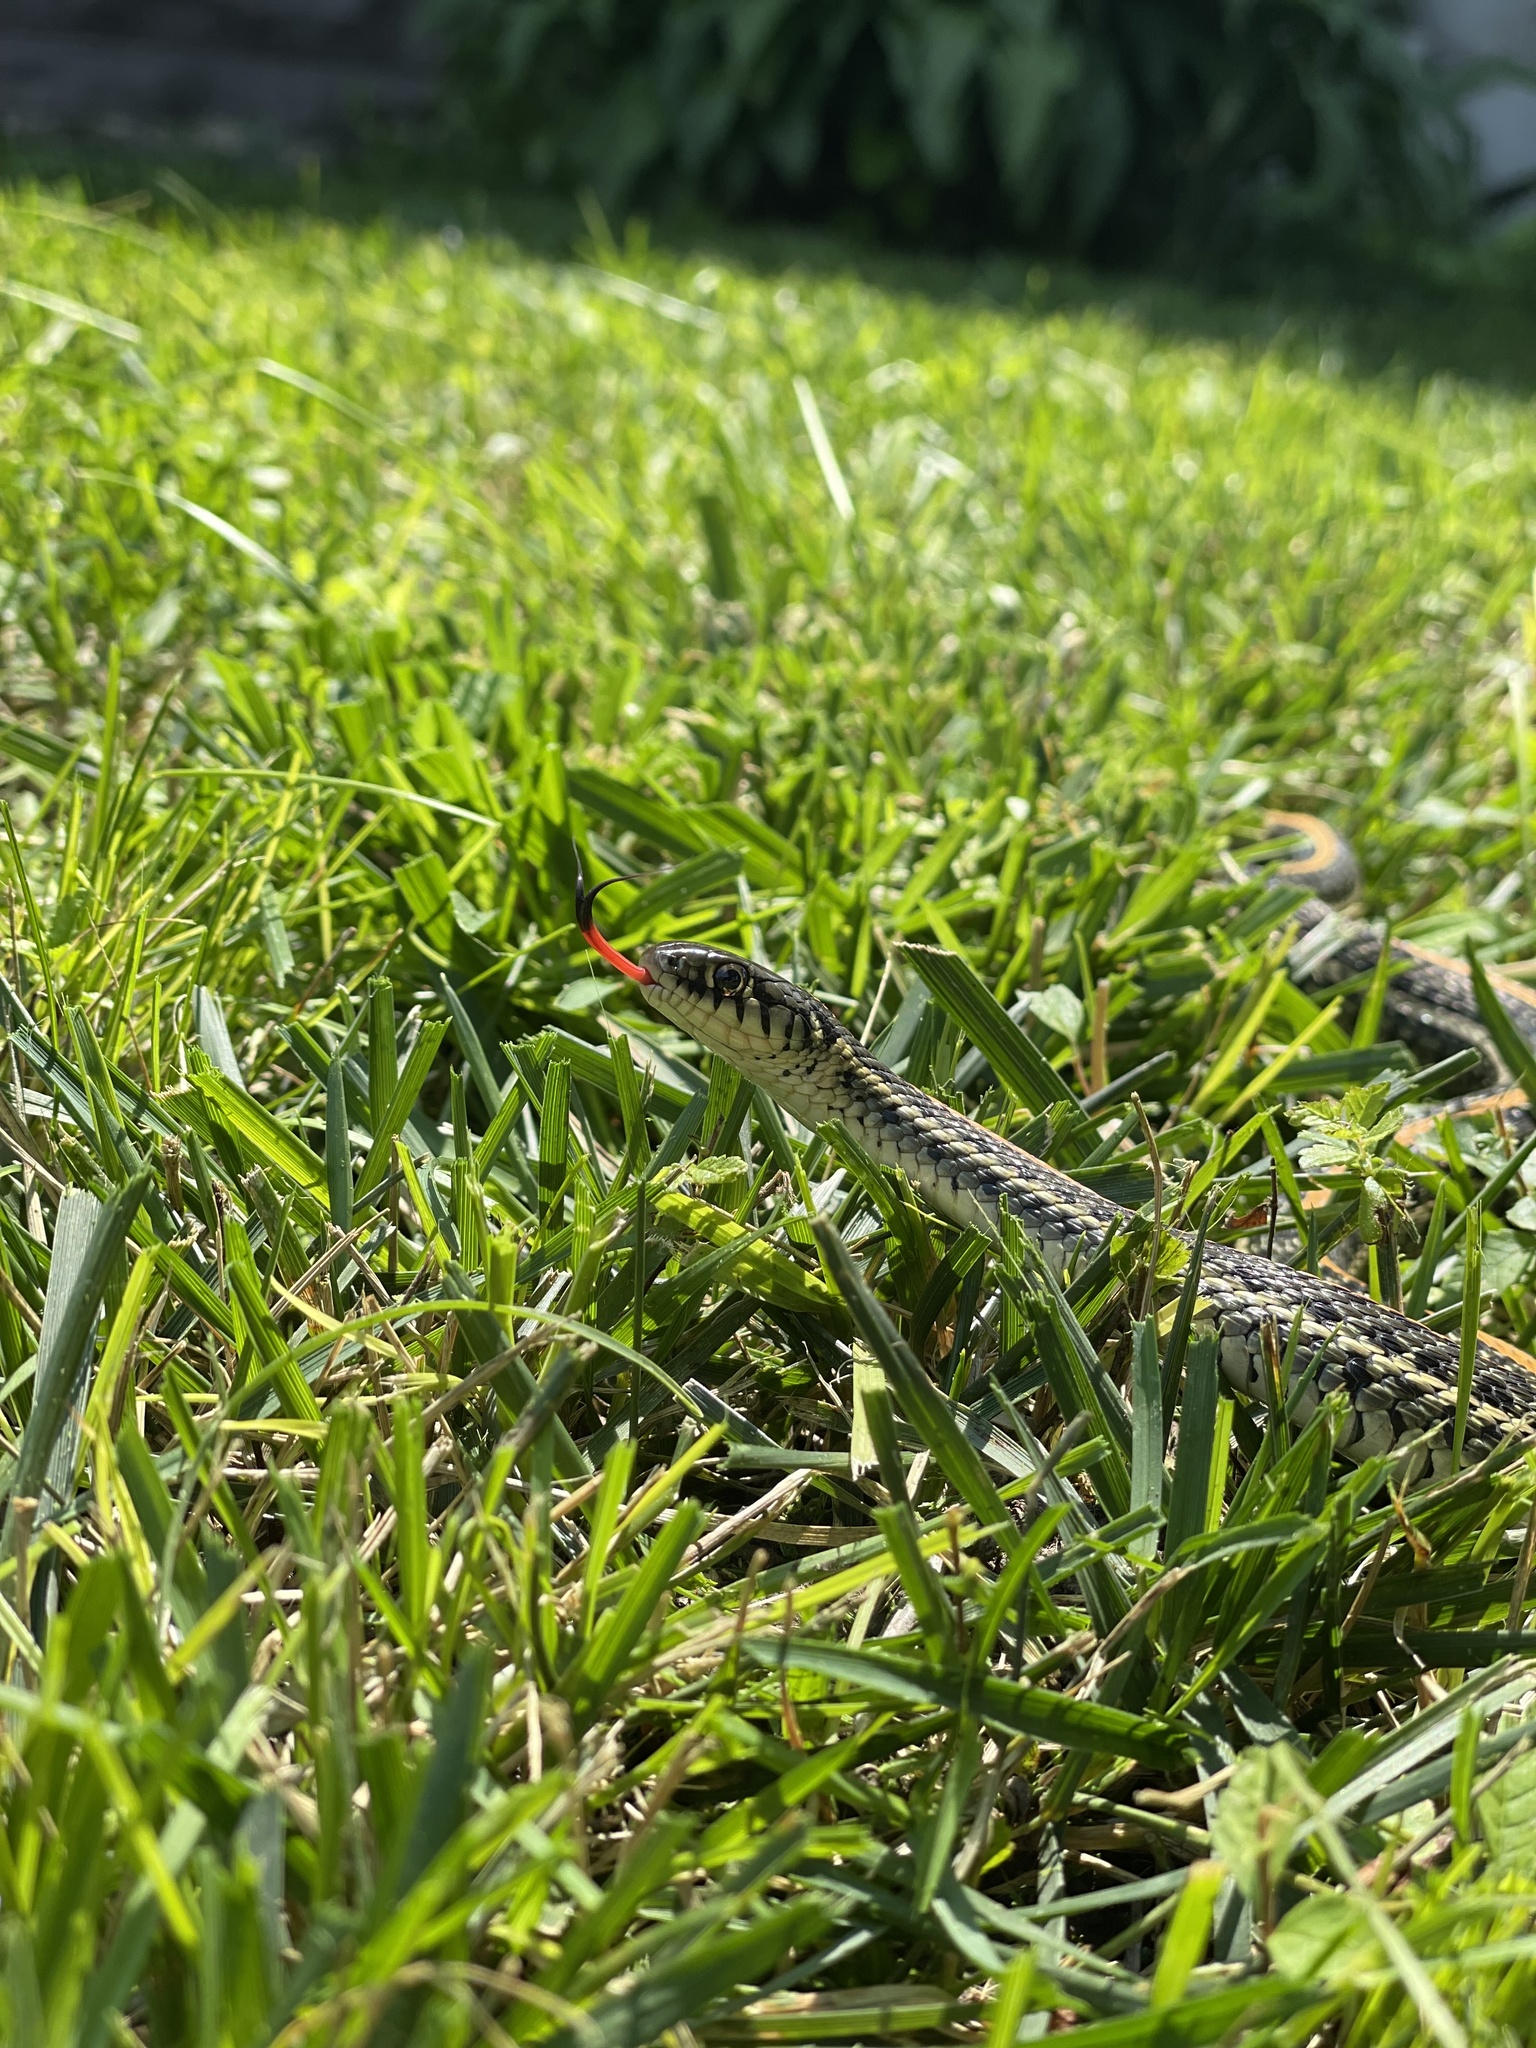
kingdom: Animalia
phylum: Chordata
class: Squamata
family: Colubridae
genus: Thamnophis
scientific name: Thamnophis radix
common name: Plains garter snake
